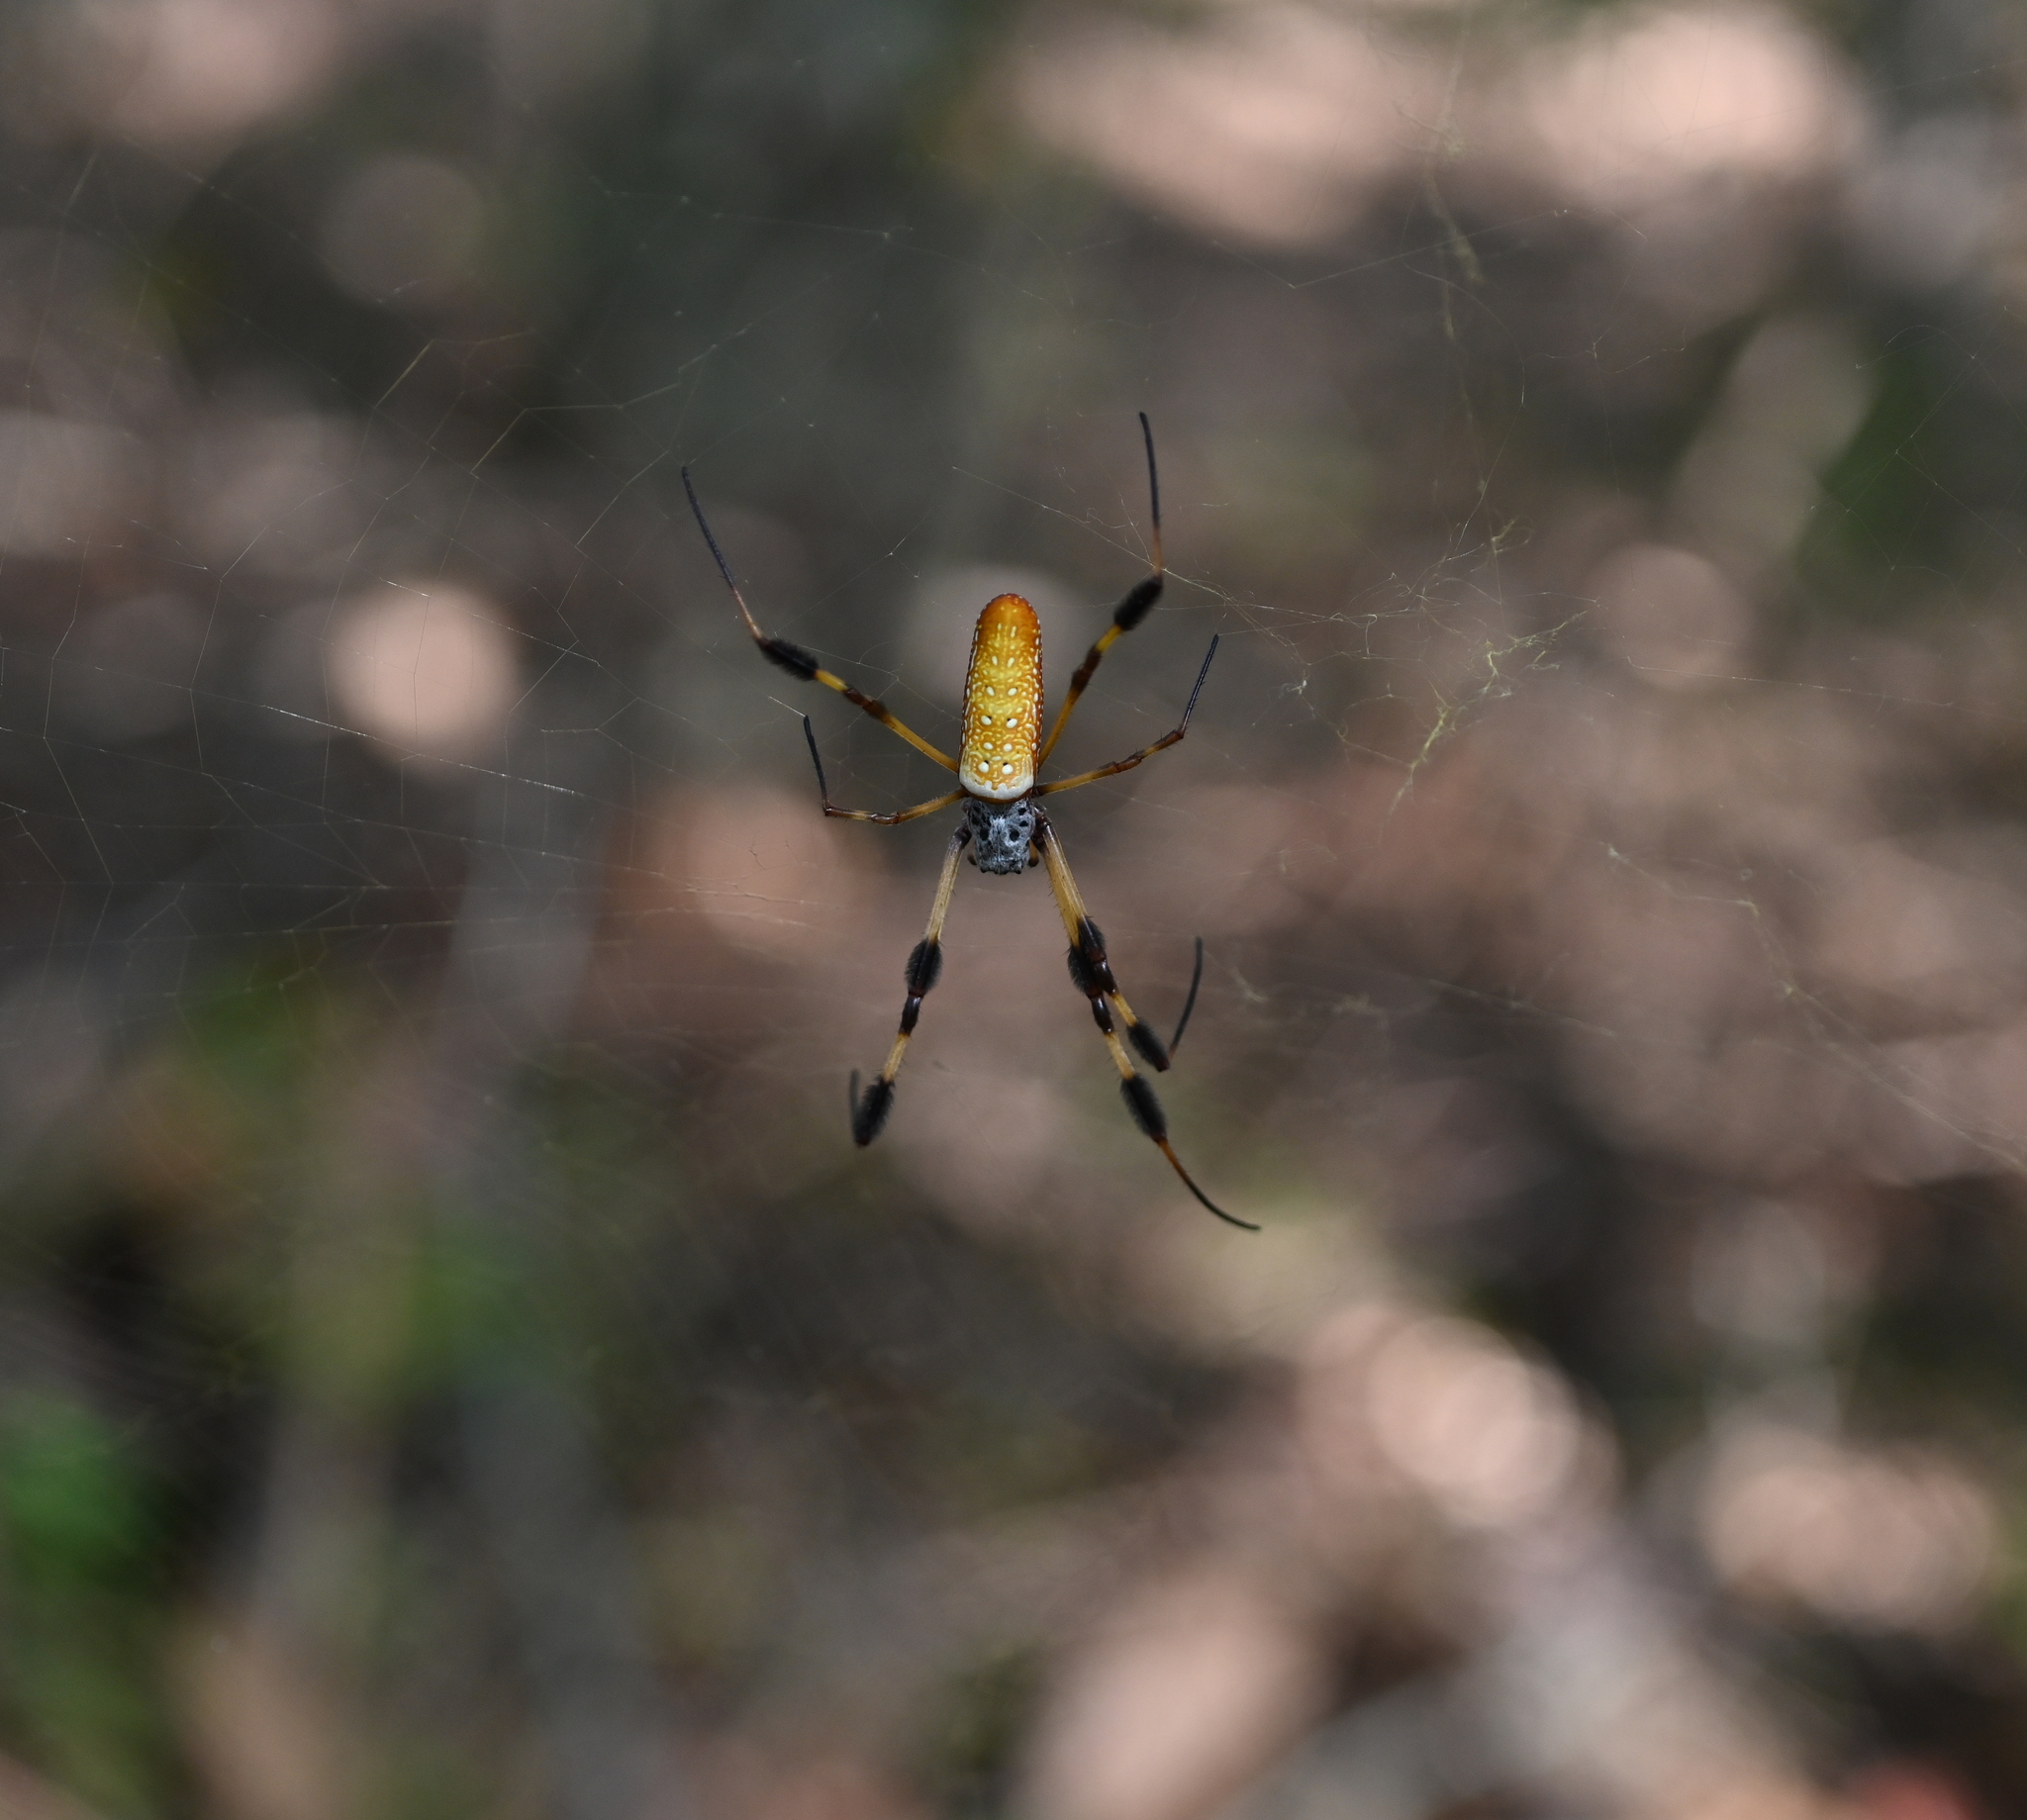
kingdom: Animalia
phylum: Arthropoda
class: Arachnida
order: Araneae
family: Araneidae
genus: Trichonephila
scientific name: Trichonephila clavipes
